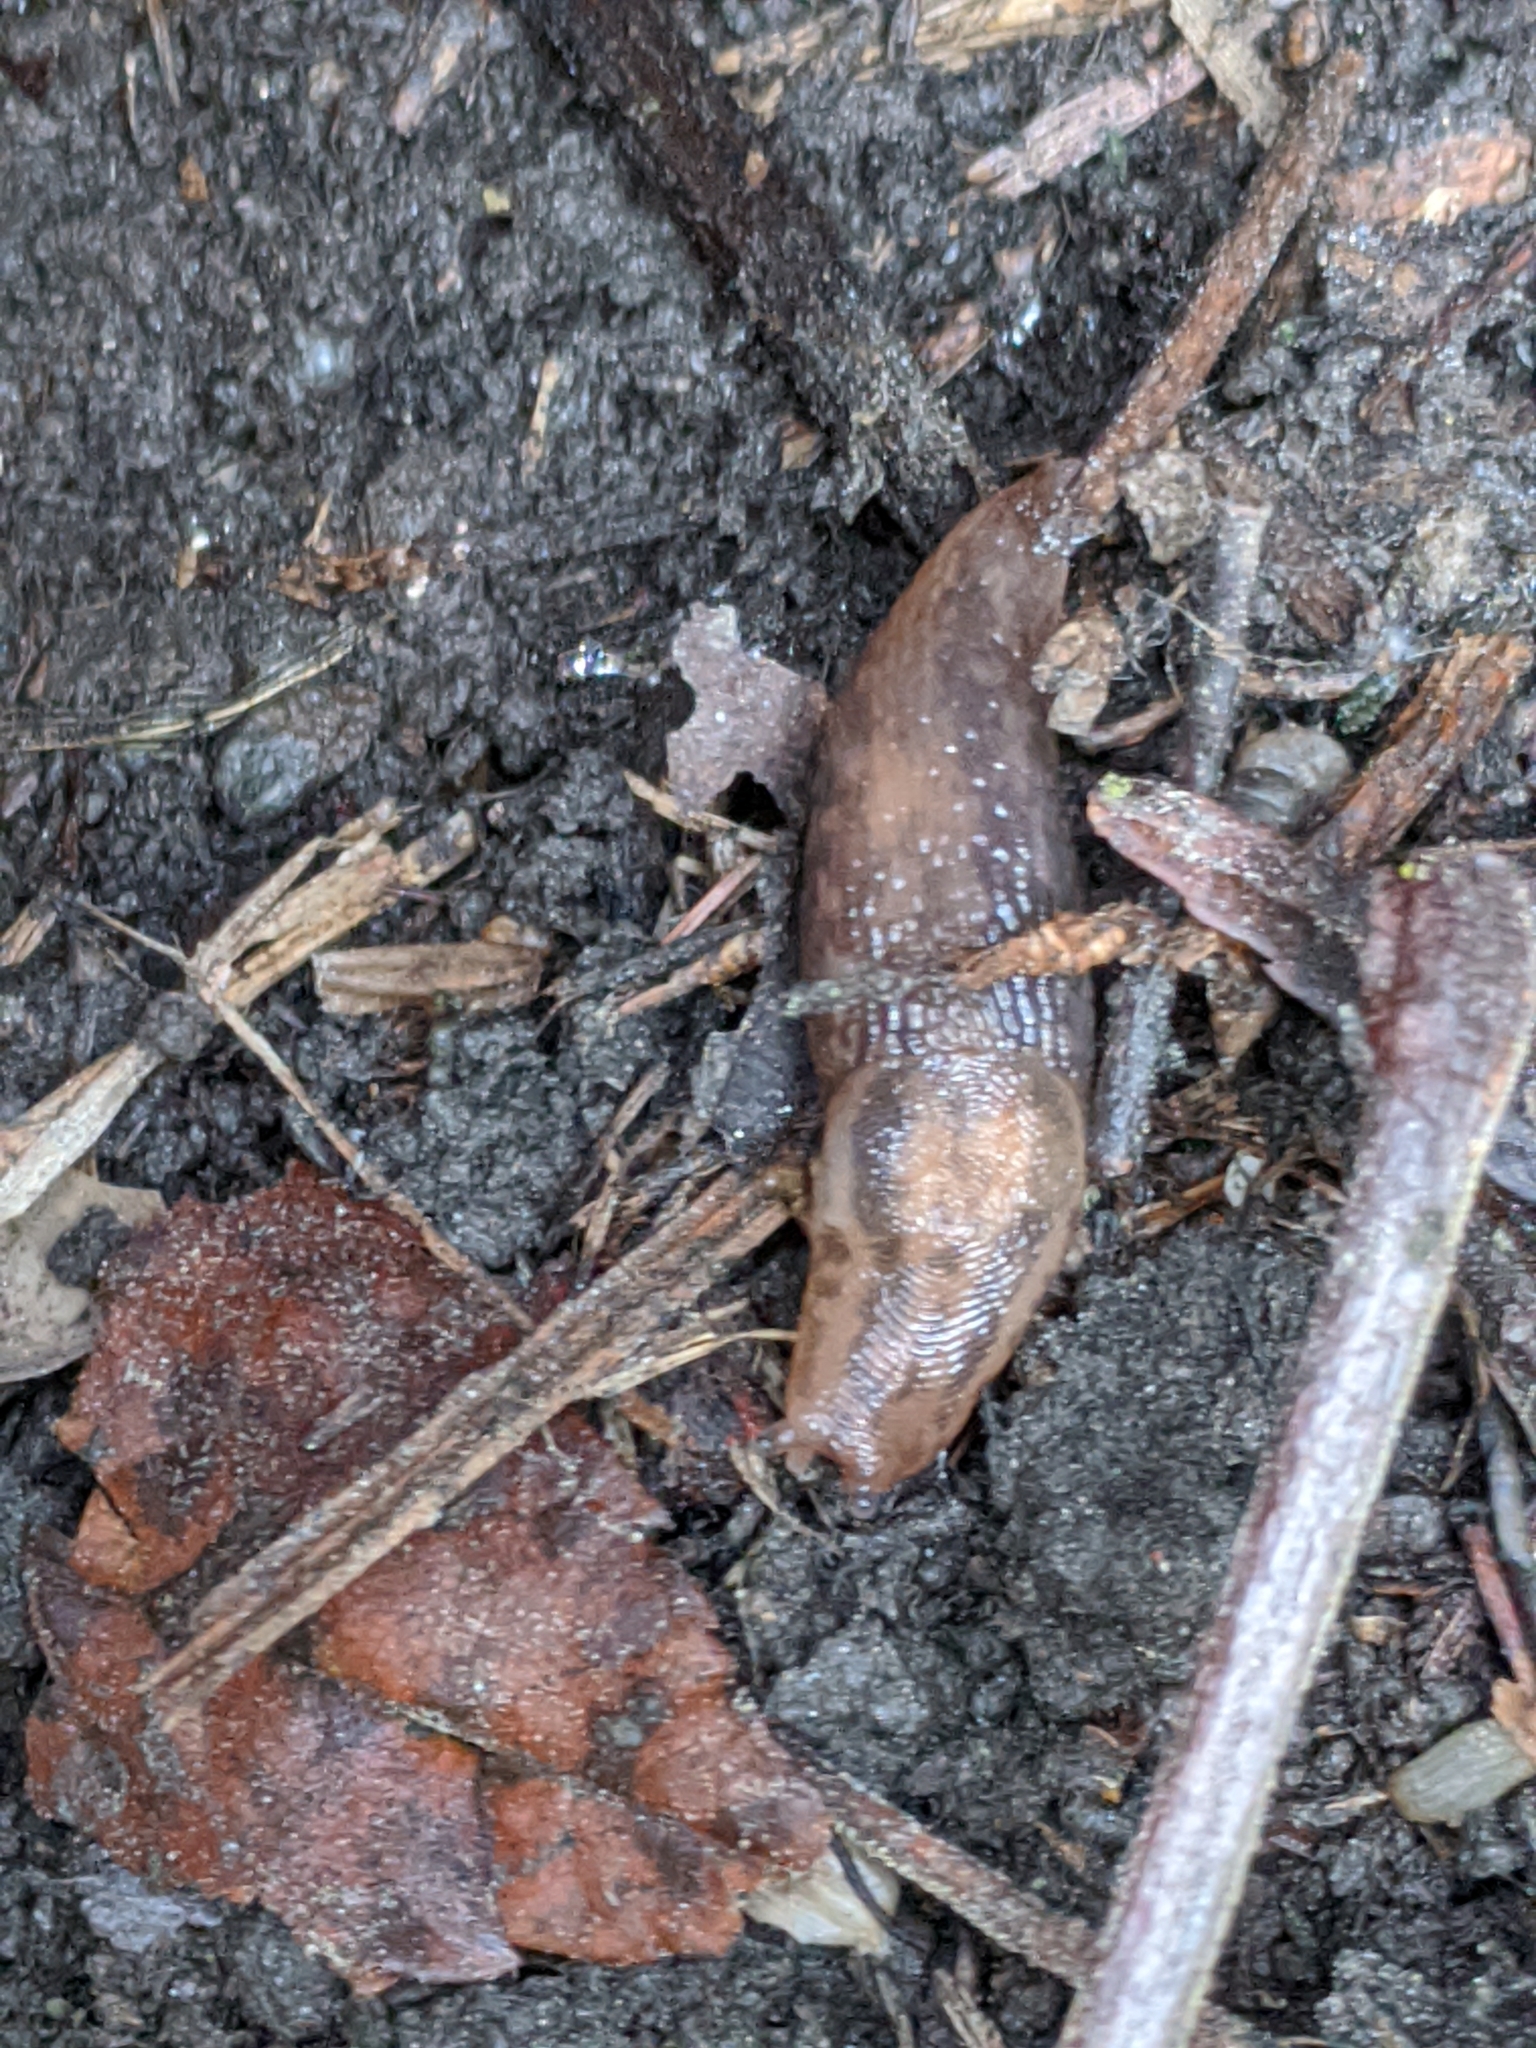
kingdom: Animalia
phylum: Mollusca
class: Gastropoda
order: Stylommatophora
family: Limacidae
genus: Ambigolimax
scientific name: Ambigolimax
